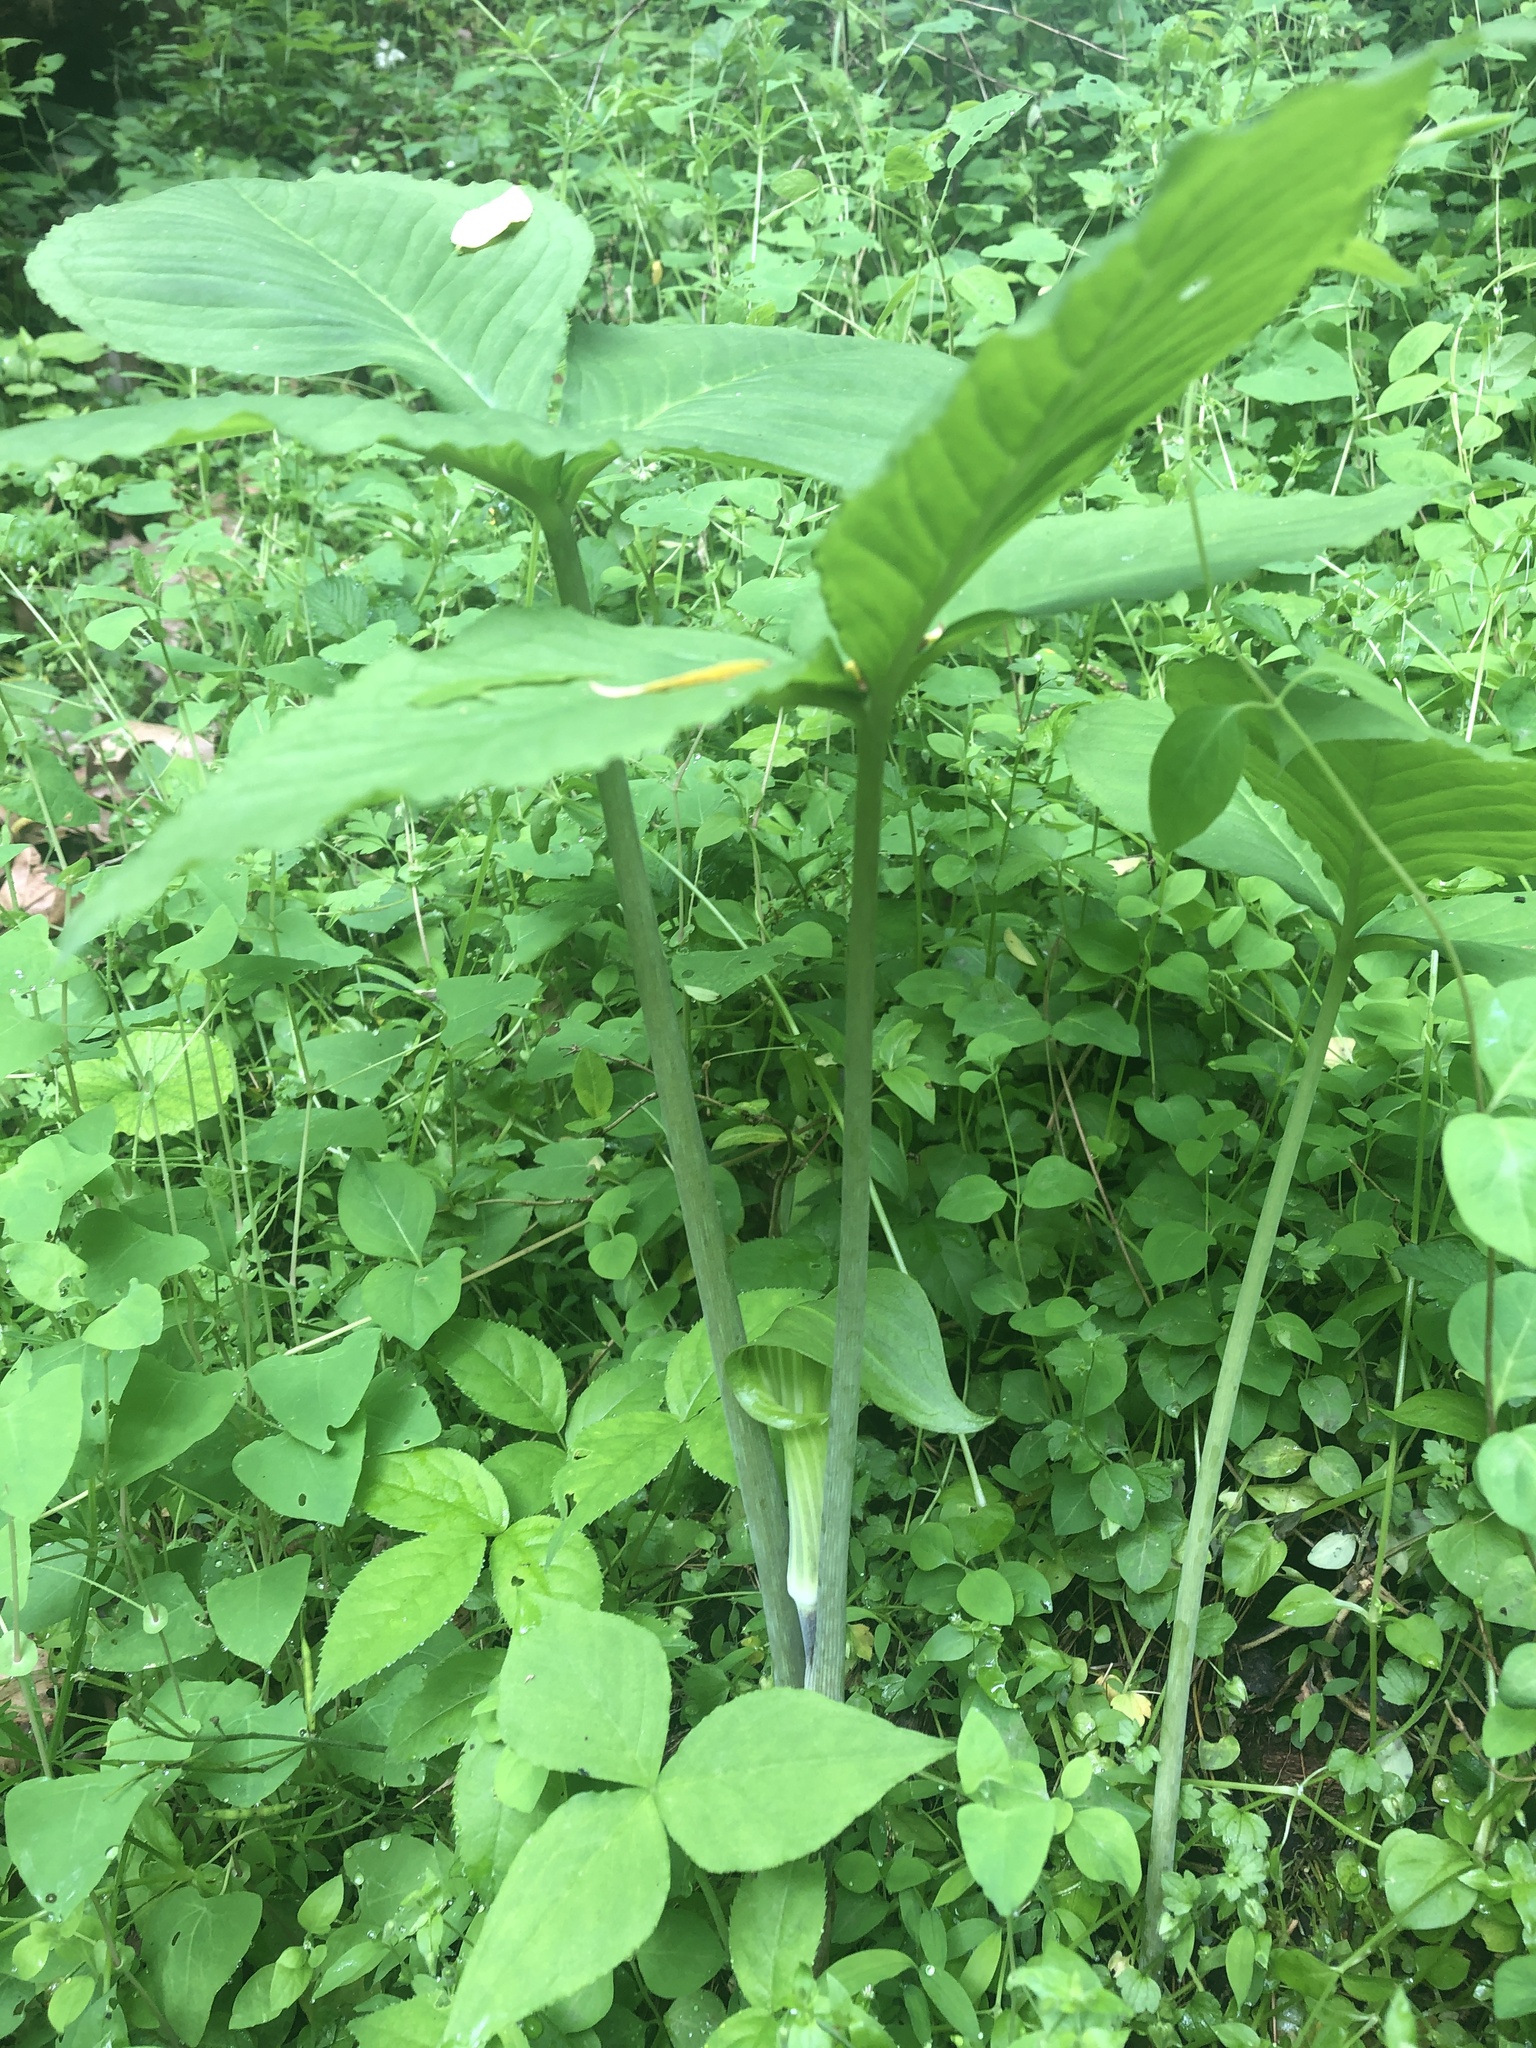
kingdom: Plantae
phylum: Tracheophyta
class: Liliopsida
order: Alismatales
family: Araceae
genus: Arisaema
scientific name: Arisaema triphyllum
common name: Jack-in-the-pulpit
